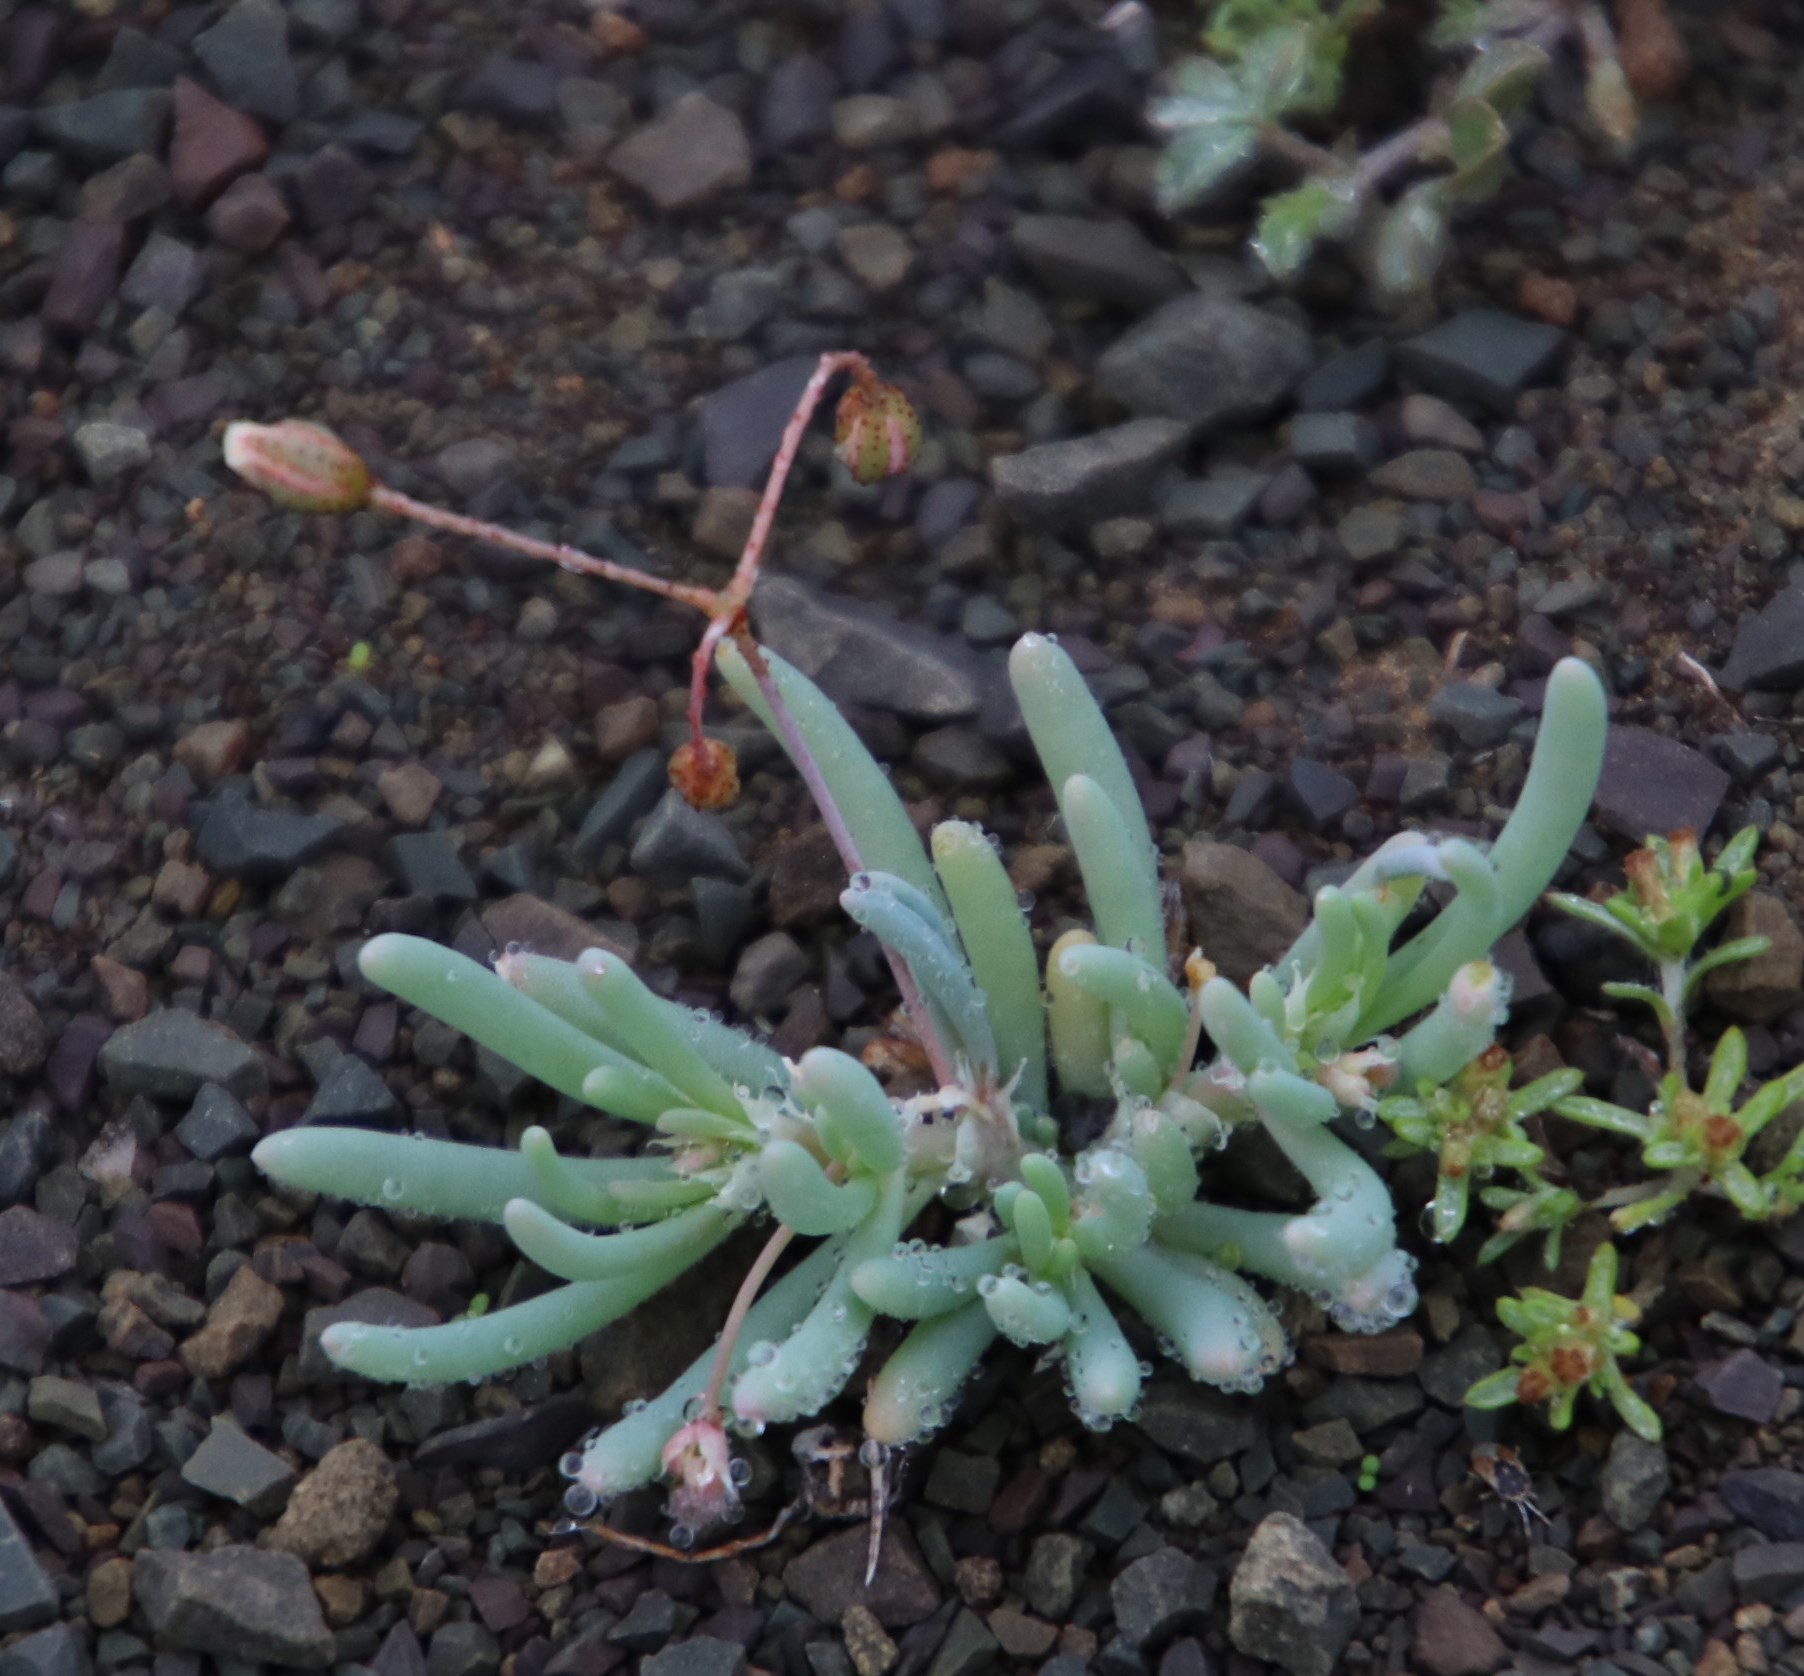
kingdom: Plantae
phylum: Tracheophyta
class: Magnoliopsida
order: Caryophyllales
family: Kewaceae
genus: Kewa
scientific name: Kewa salsoloides
